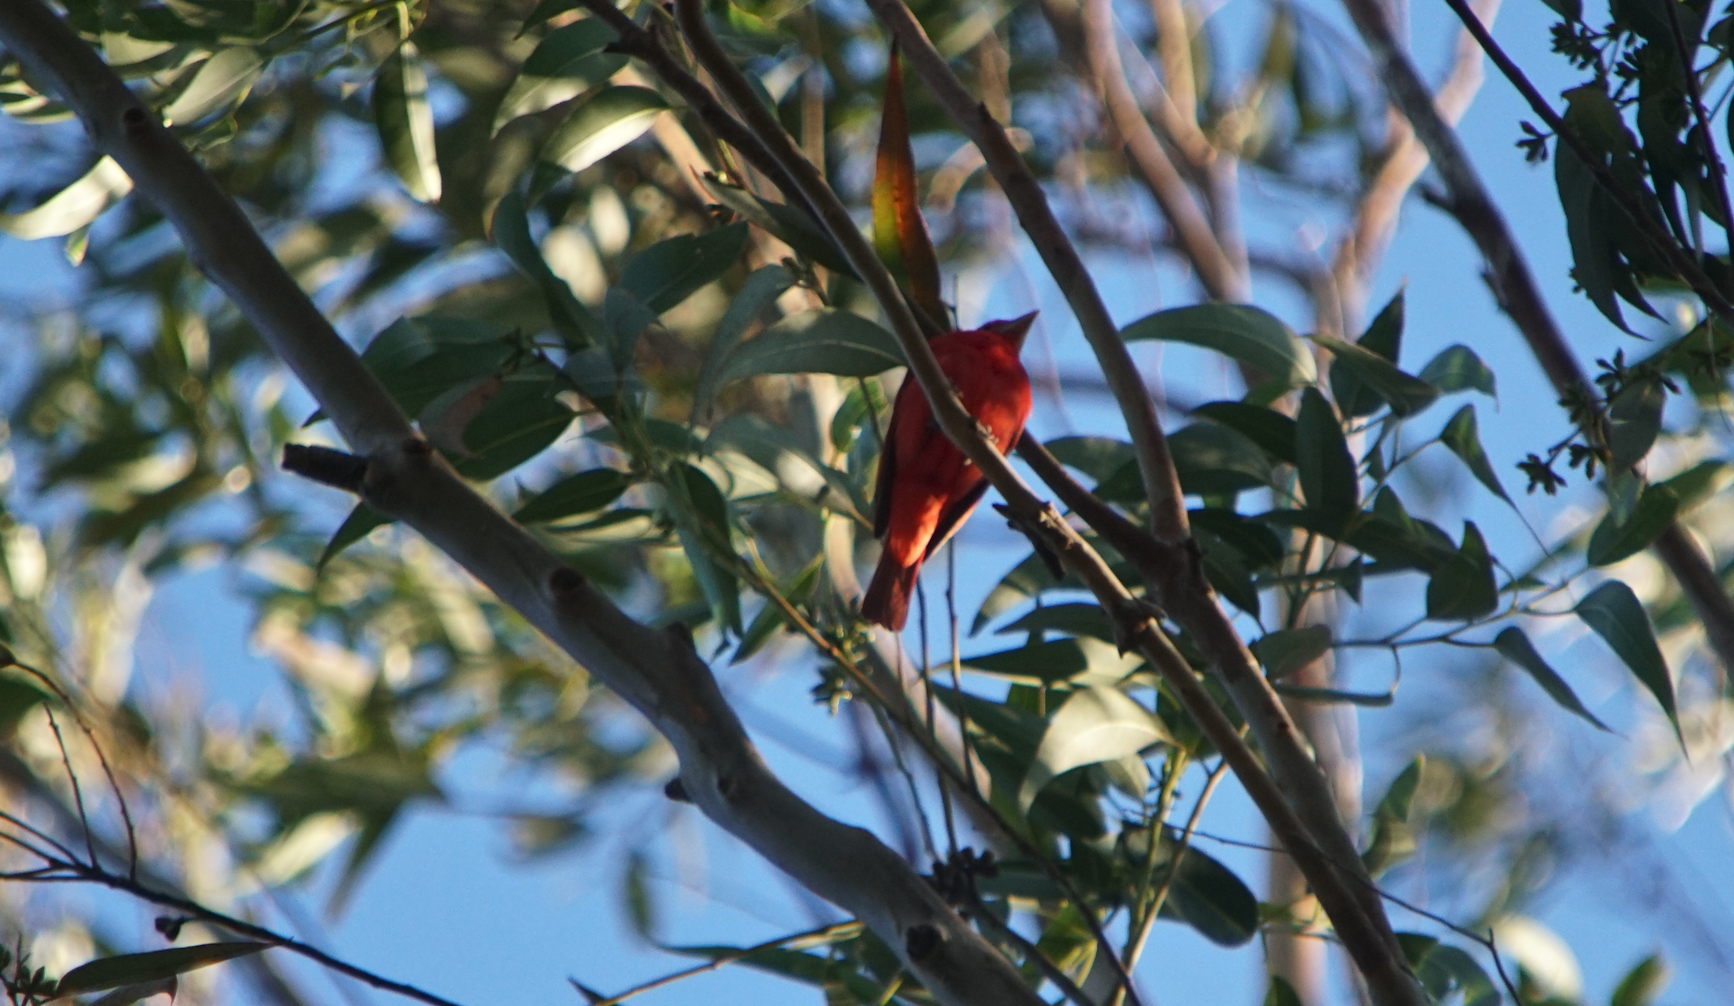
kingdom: Animalia
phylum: Chordata
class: Aves
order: Passeriformes
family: Cardinalidae
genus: Piranga
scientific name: Piranga rubra
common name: Summer tanager
